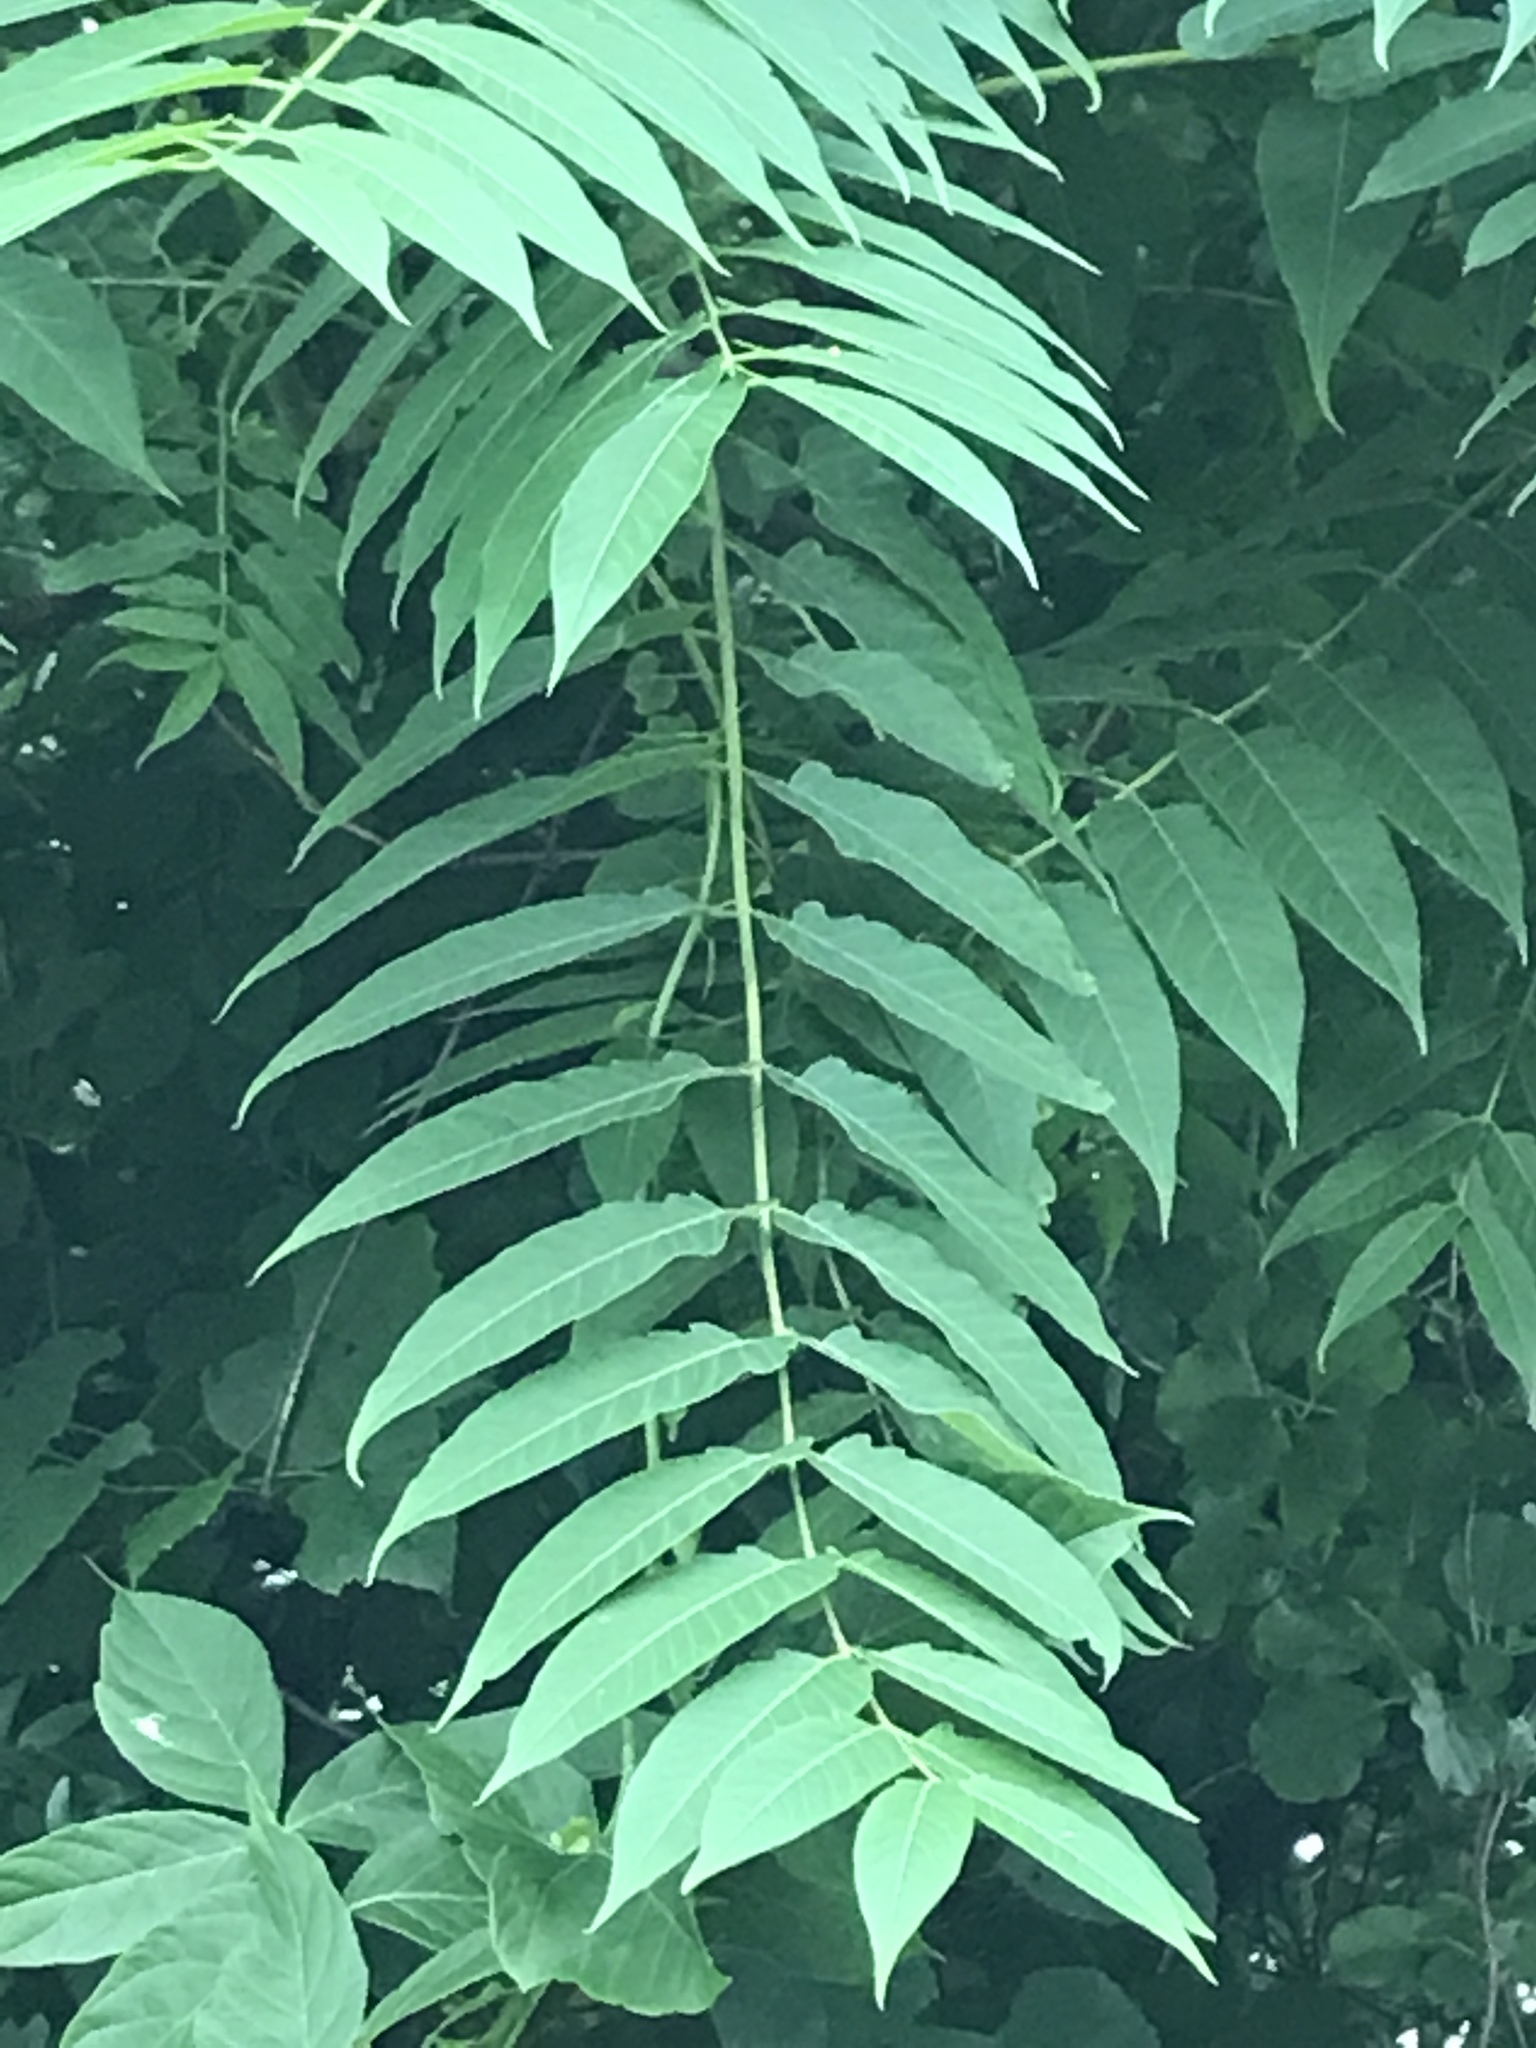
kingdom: Plantae
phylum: Tracheophyta
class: Magnoliopsida
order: Sapindales
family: Simaroubaceae
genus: Ailanthus
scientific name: Ailanthus altissima
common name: Tree-of-heaven
